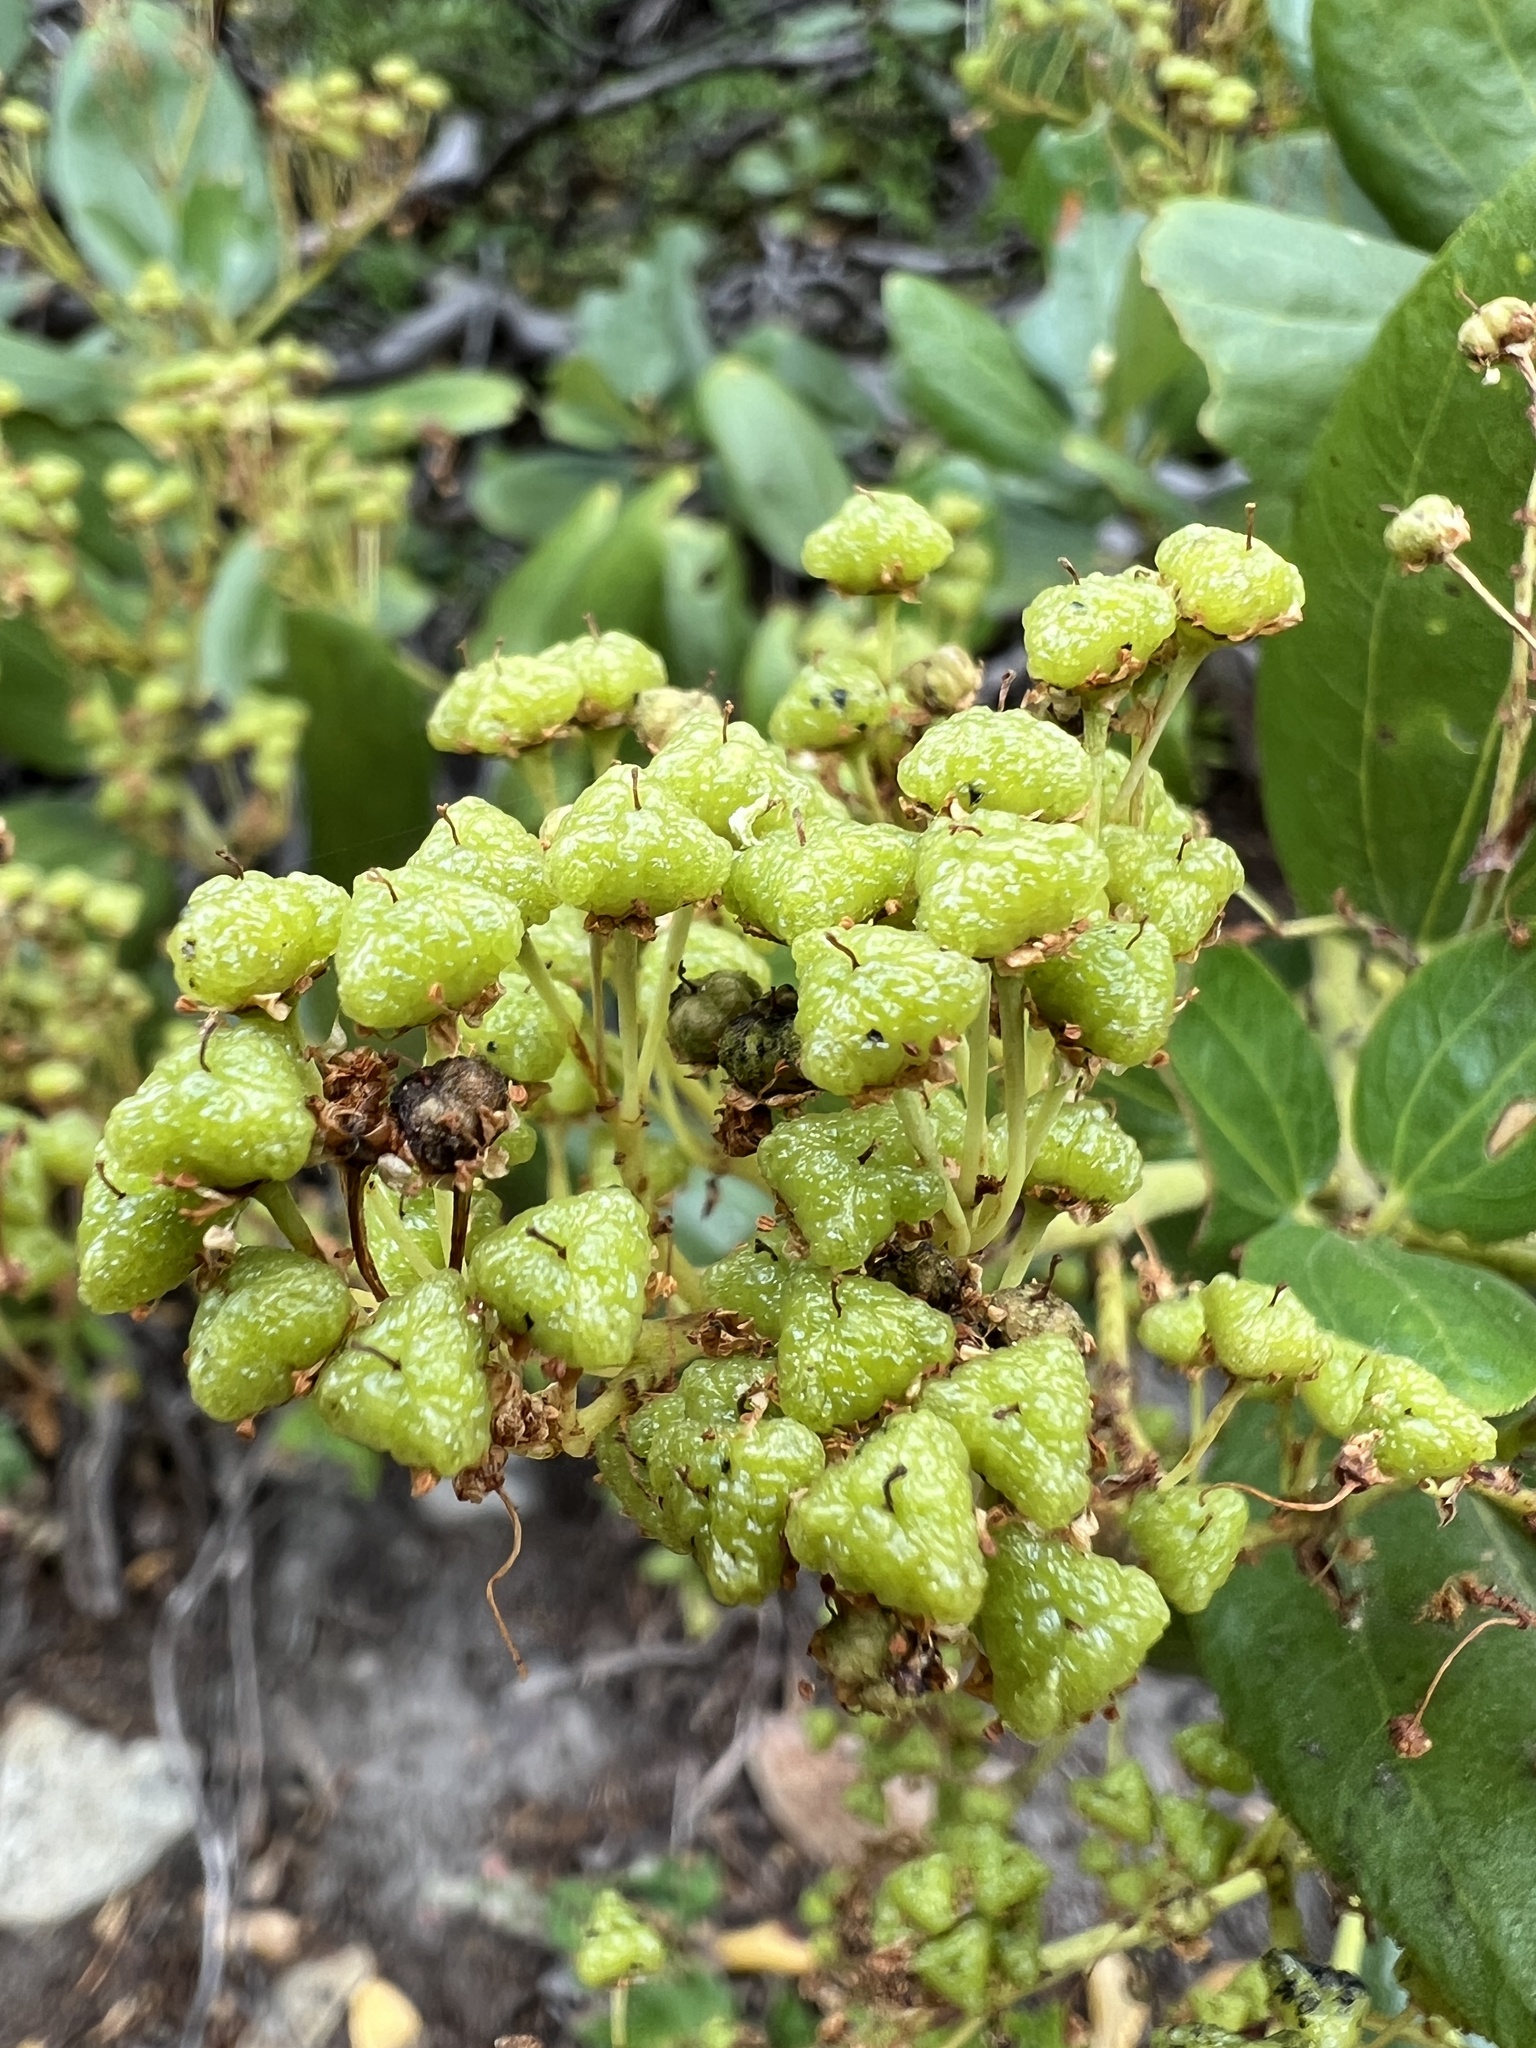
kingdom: Plantae
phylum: Tracheophyta
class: Magnoliopsida
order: Rosales
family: Rhamnaceae
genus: Ceanothus
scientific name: Ceanothus velutinus
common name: Snowbrush
